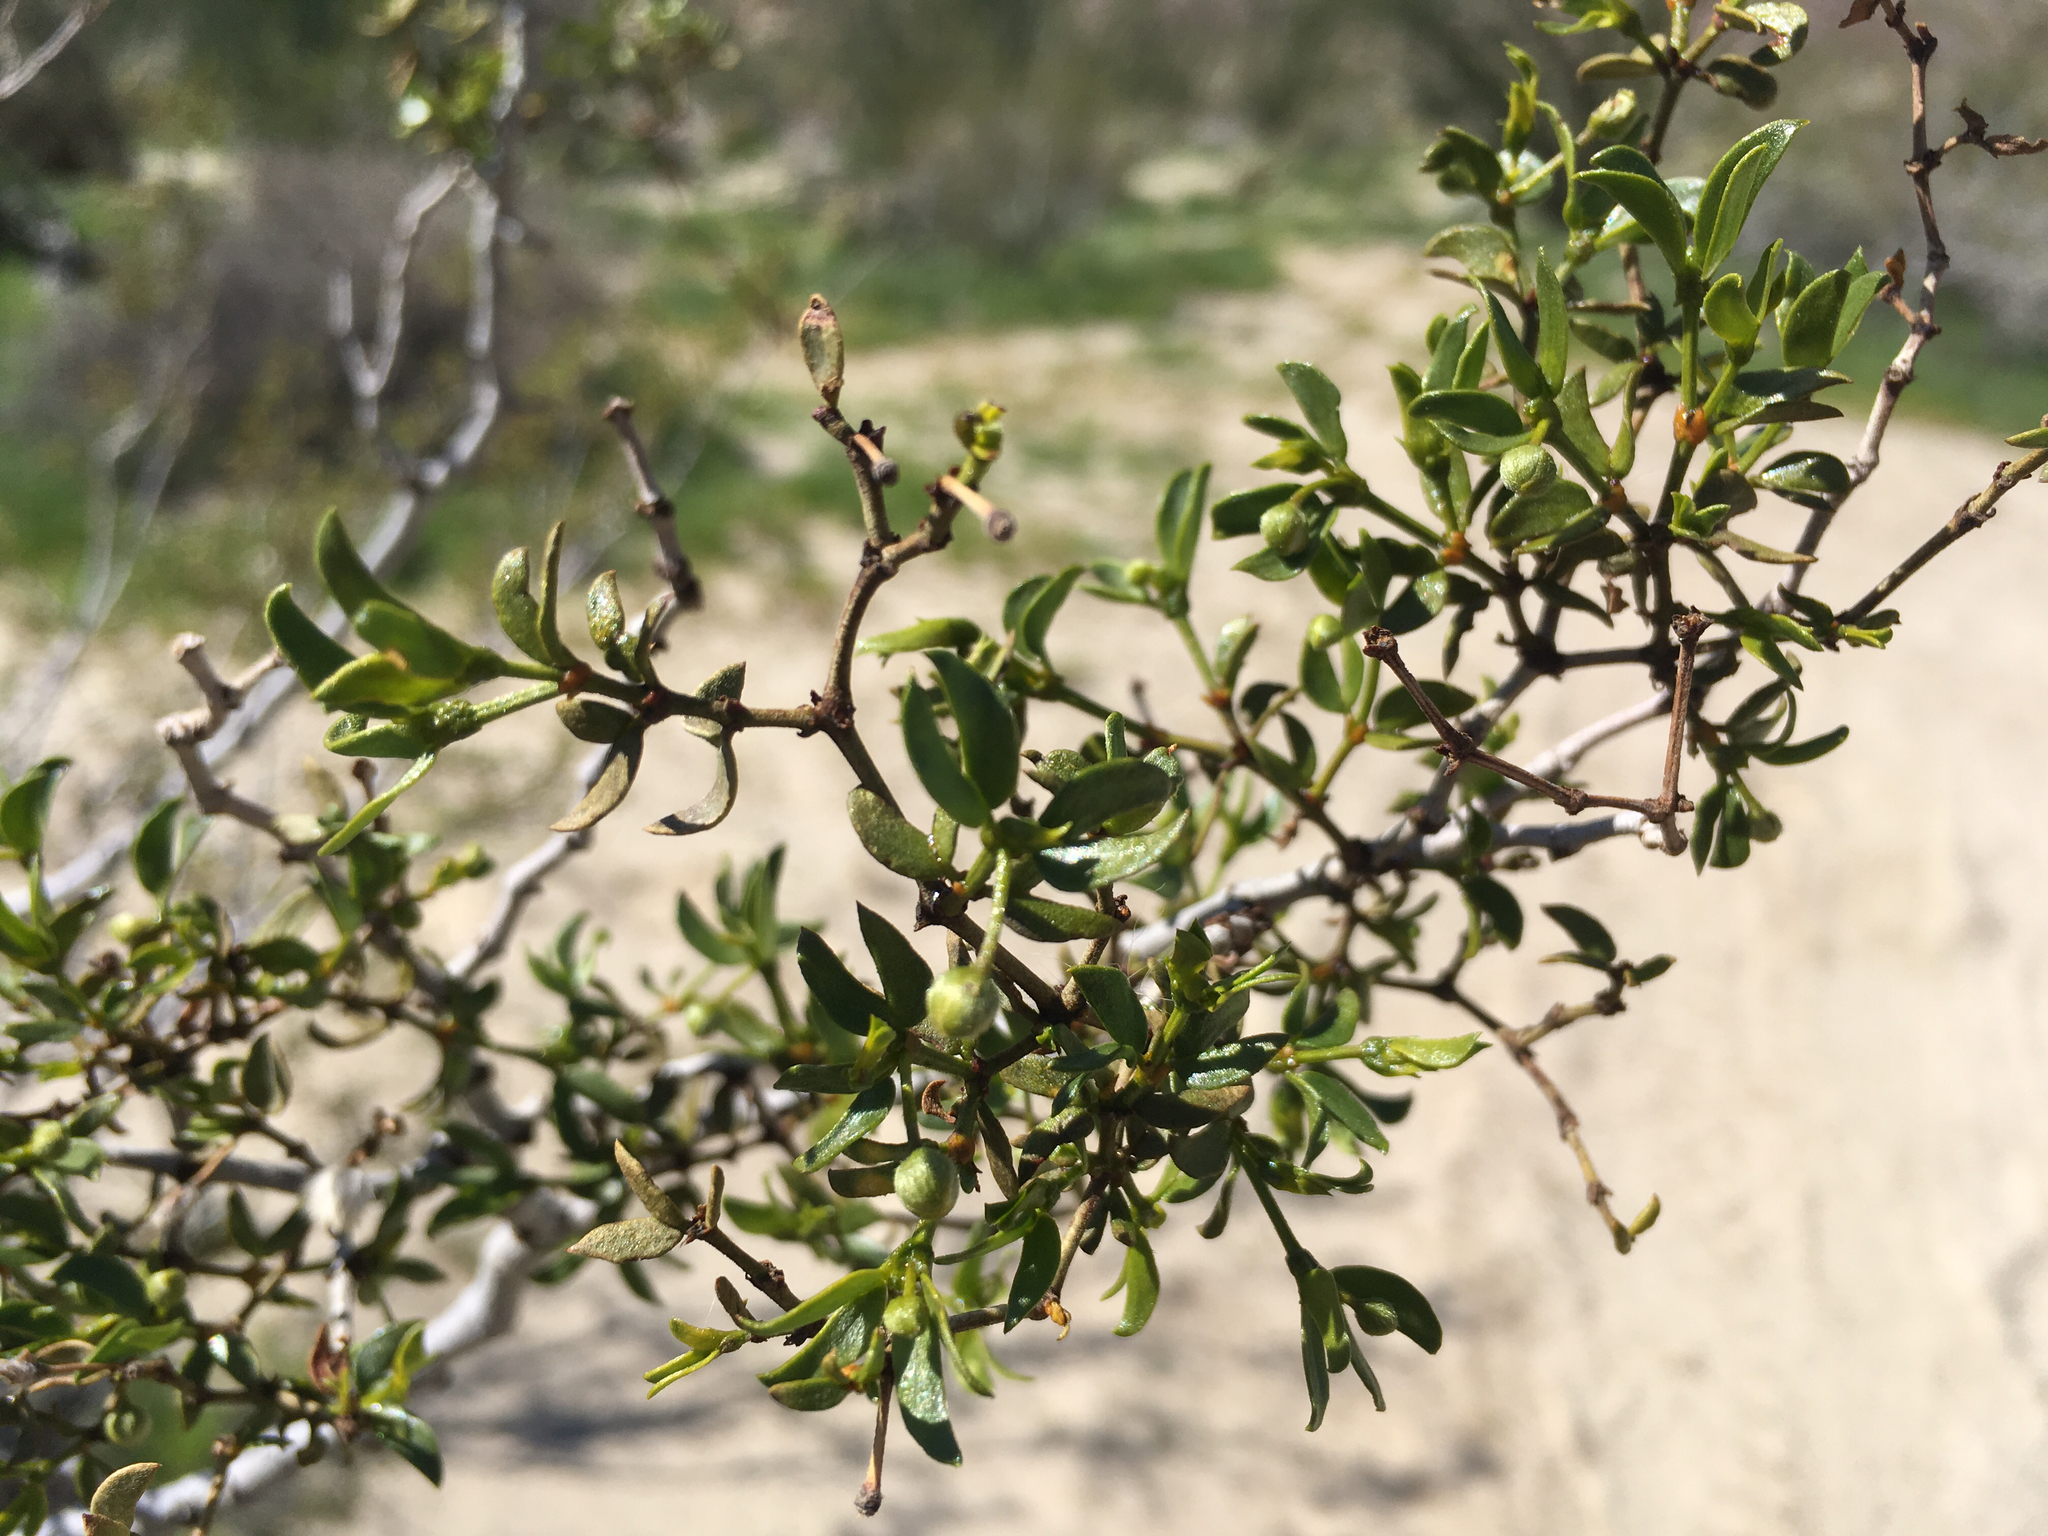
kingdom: Plantae
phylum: Tracheophyta
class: Magnoliopsida
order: Zygophyllales
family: Zygophyllaceae
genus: Larrea
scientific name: Larrea tridentata
